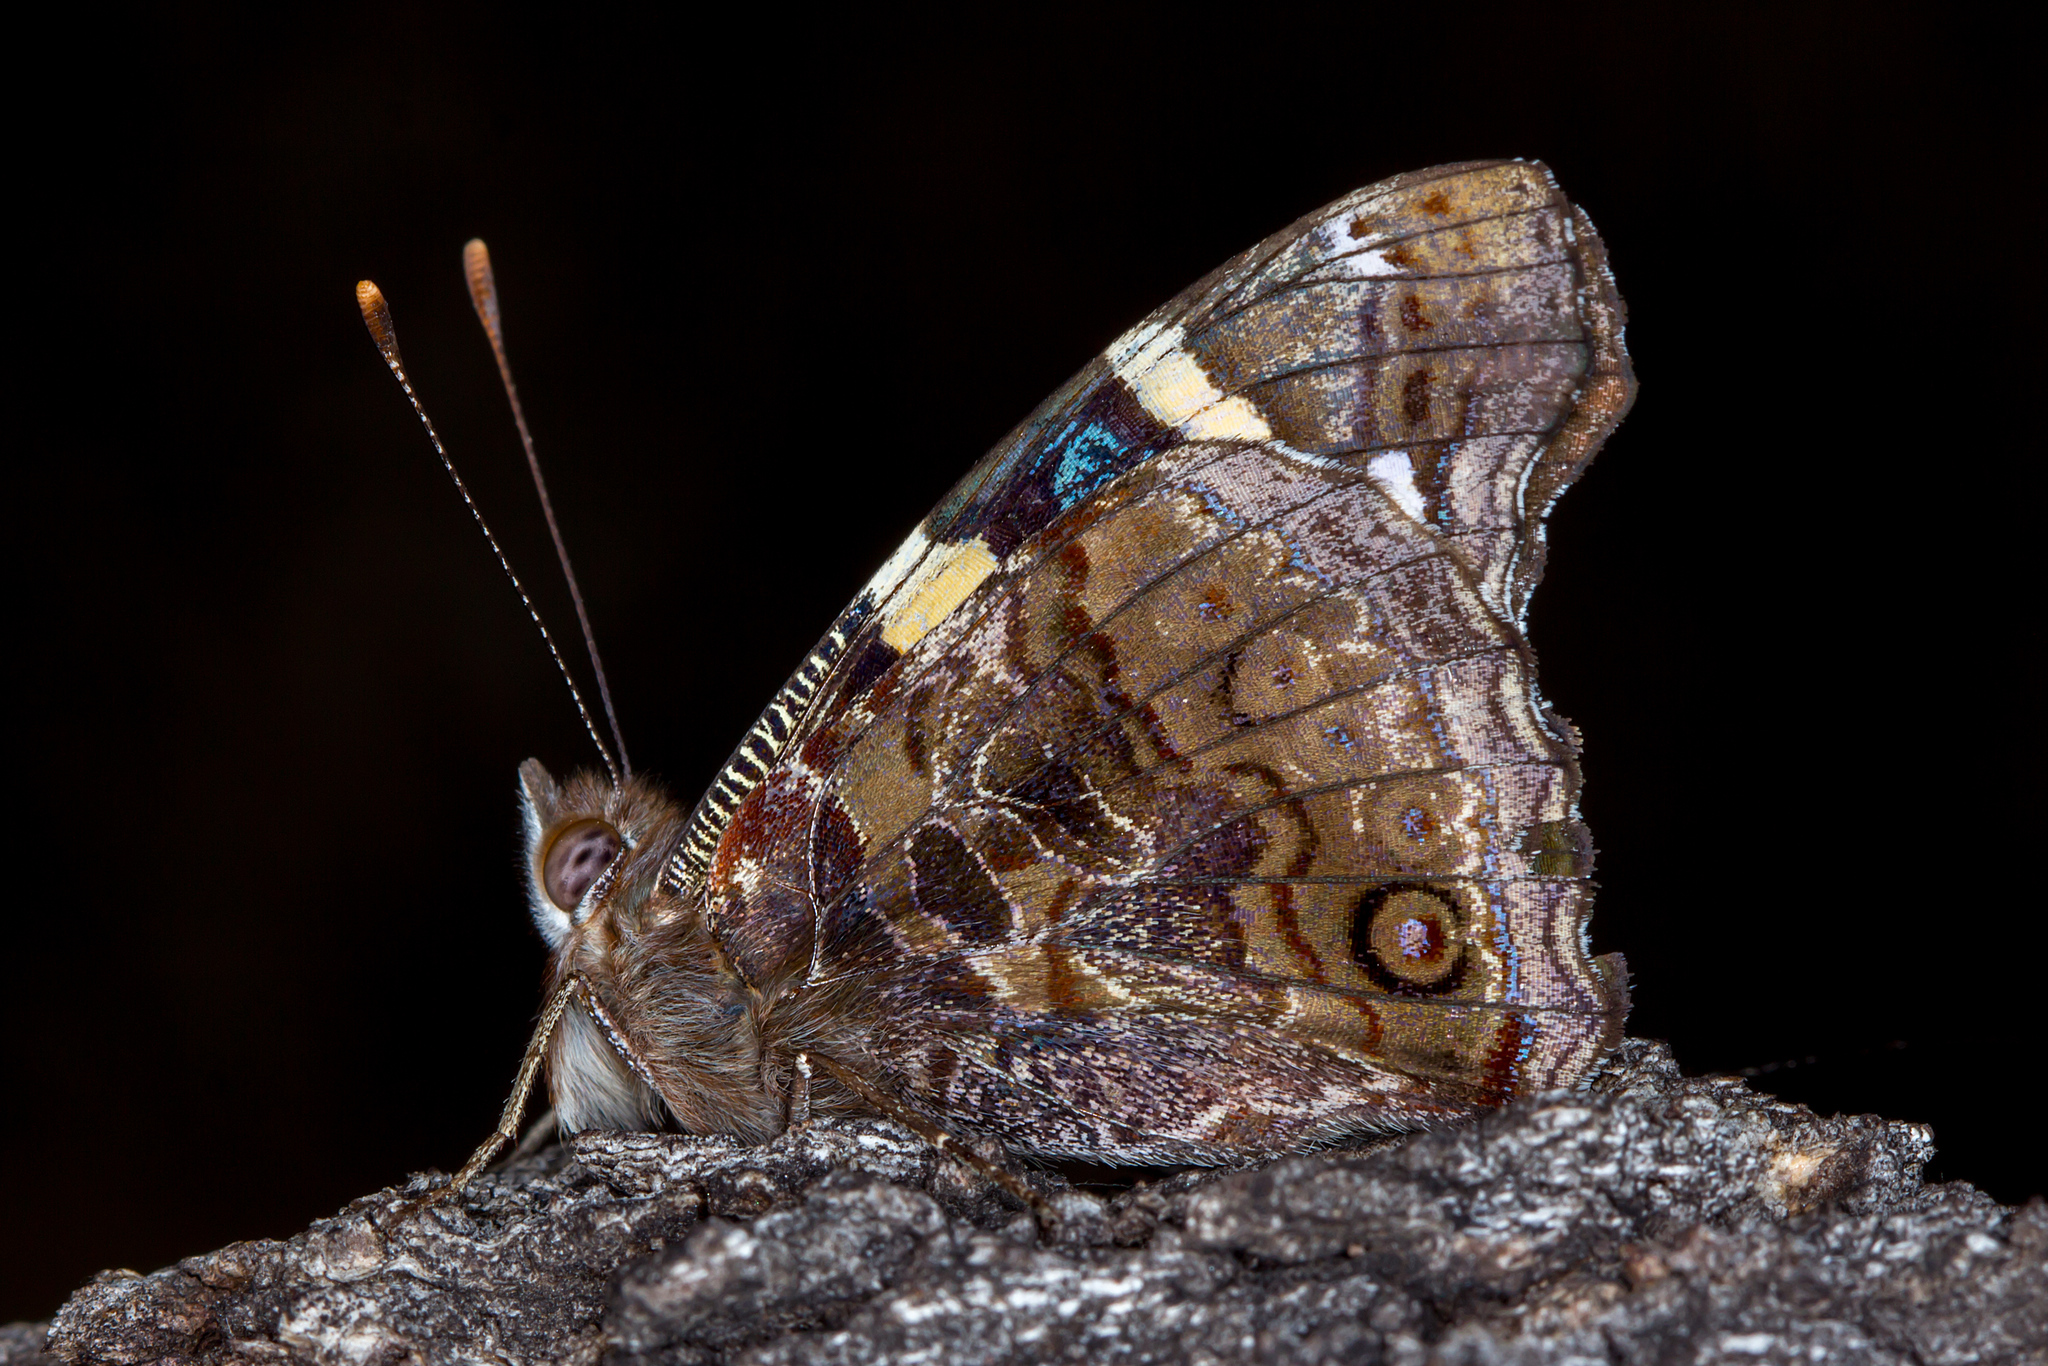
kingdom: Animalia
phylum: Arthropoda
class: Insecta
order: Lepidoptera
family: Nymphalidae
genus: Vanessa
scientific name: Vanessa itea
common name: Yellow admiral
